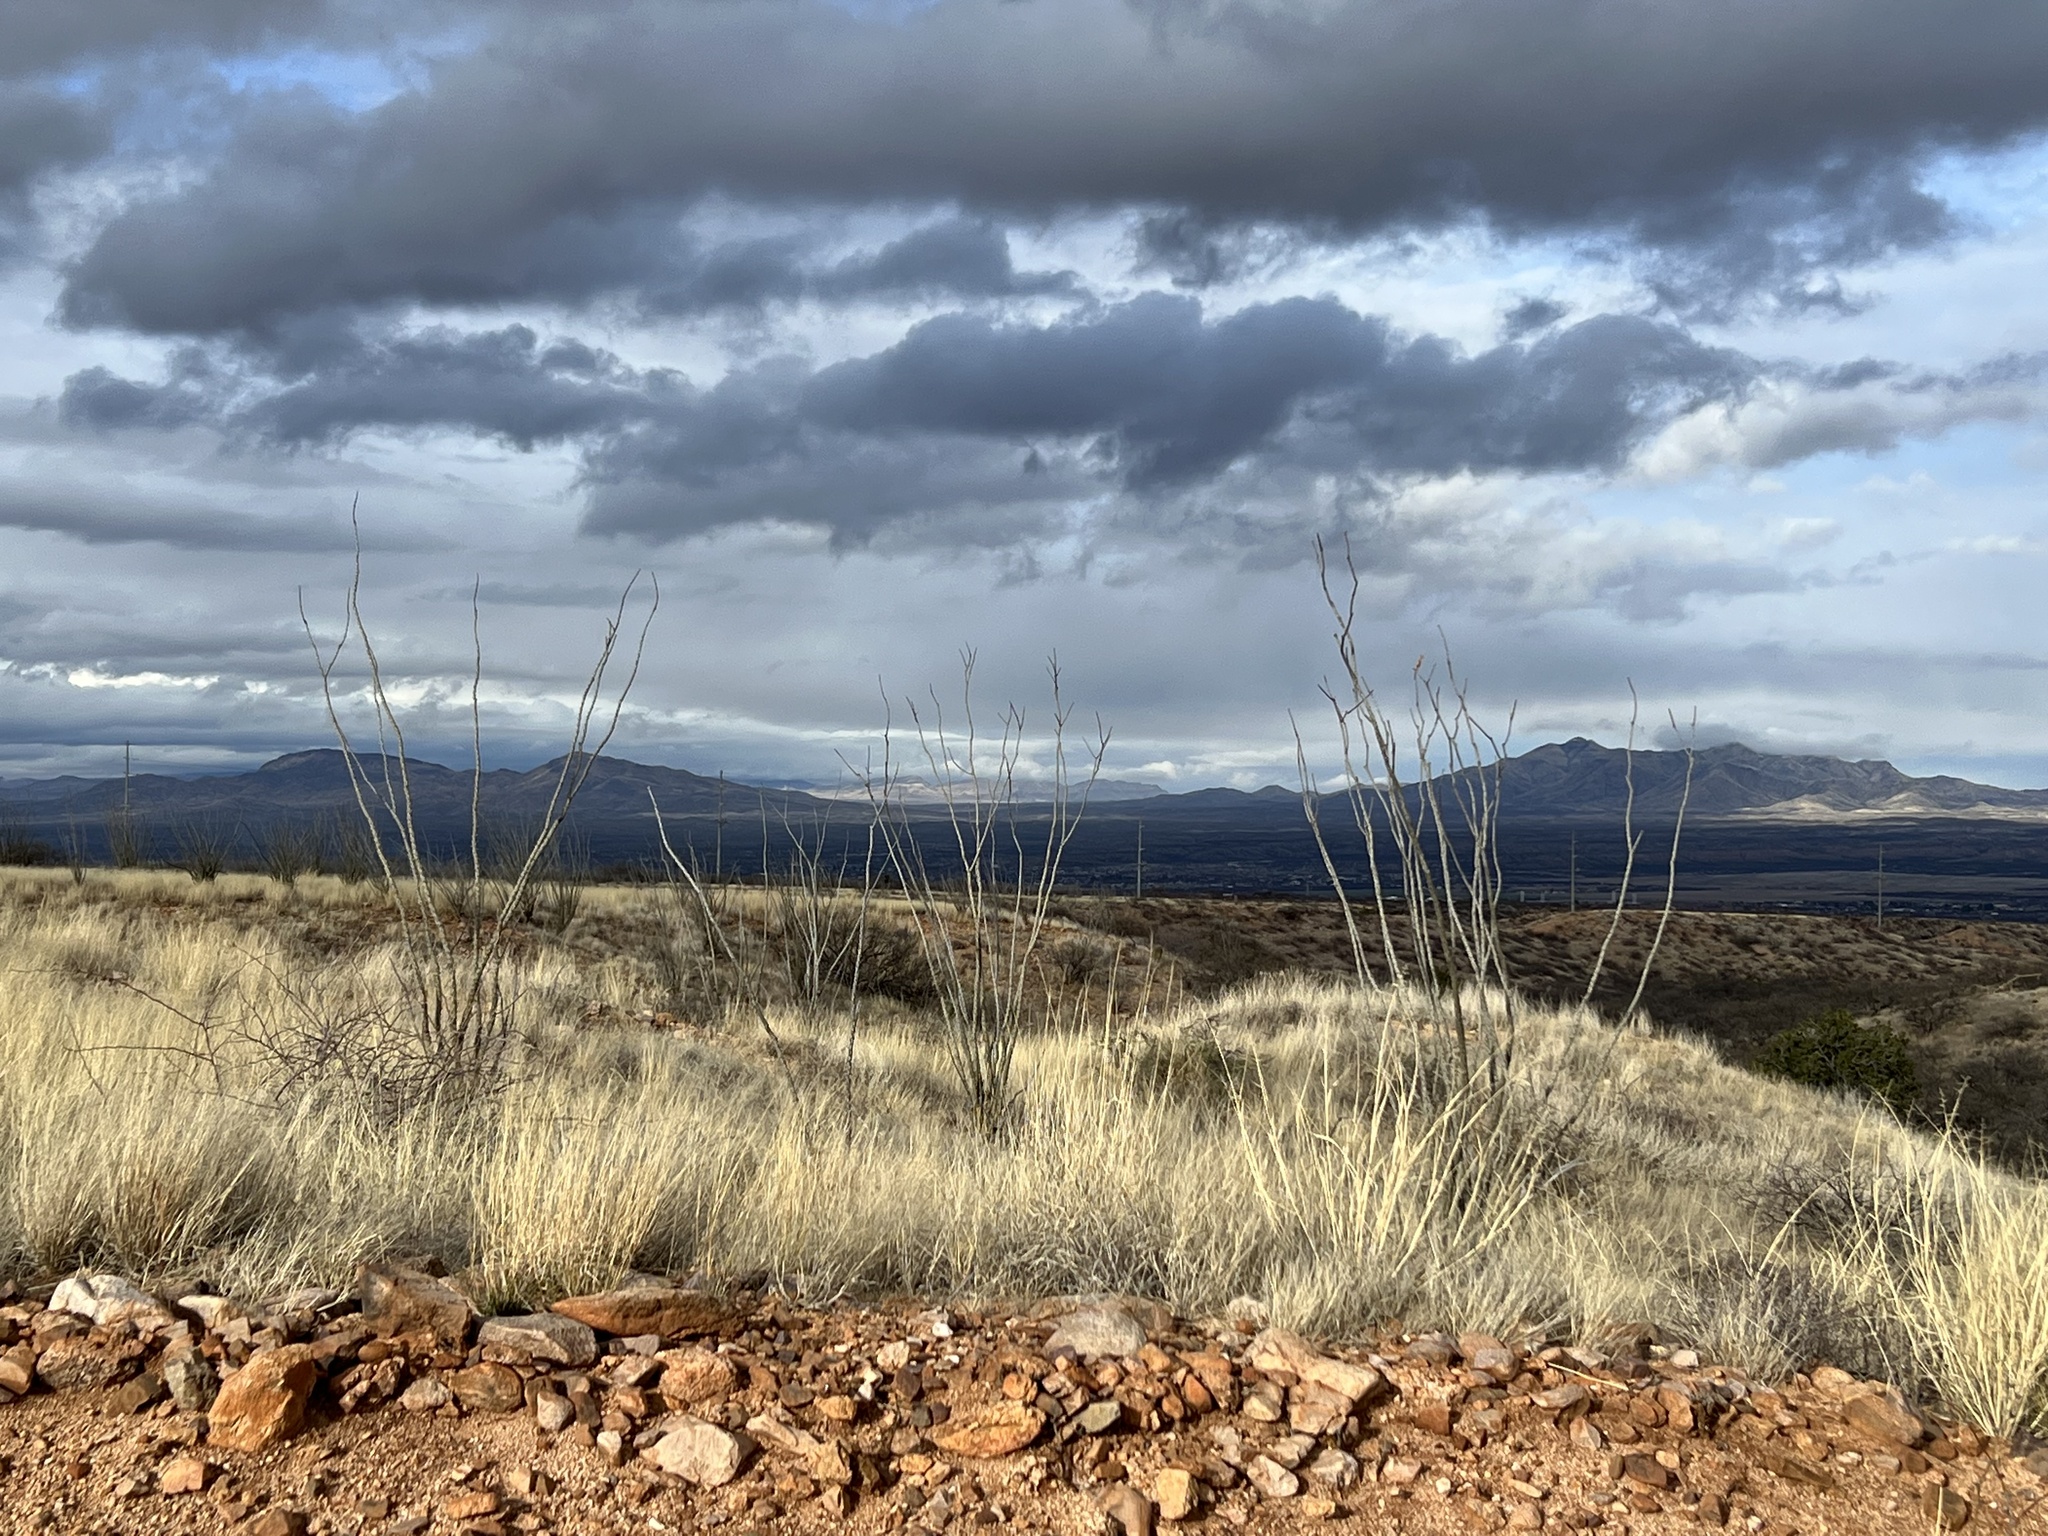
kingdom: Plantae
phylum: Tracheophyta
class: Magnoliopsida
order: Ericales
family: Fouquieriaceae
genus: Fouquieria
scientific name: Fouquieria splendens
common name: Vine-cactus
